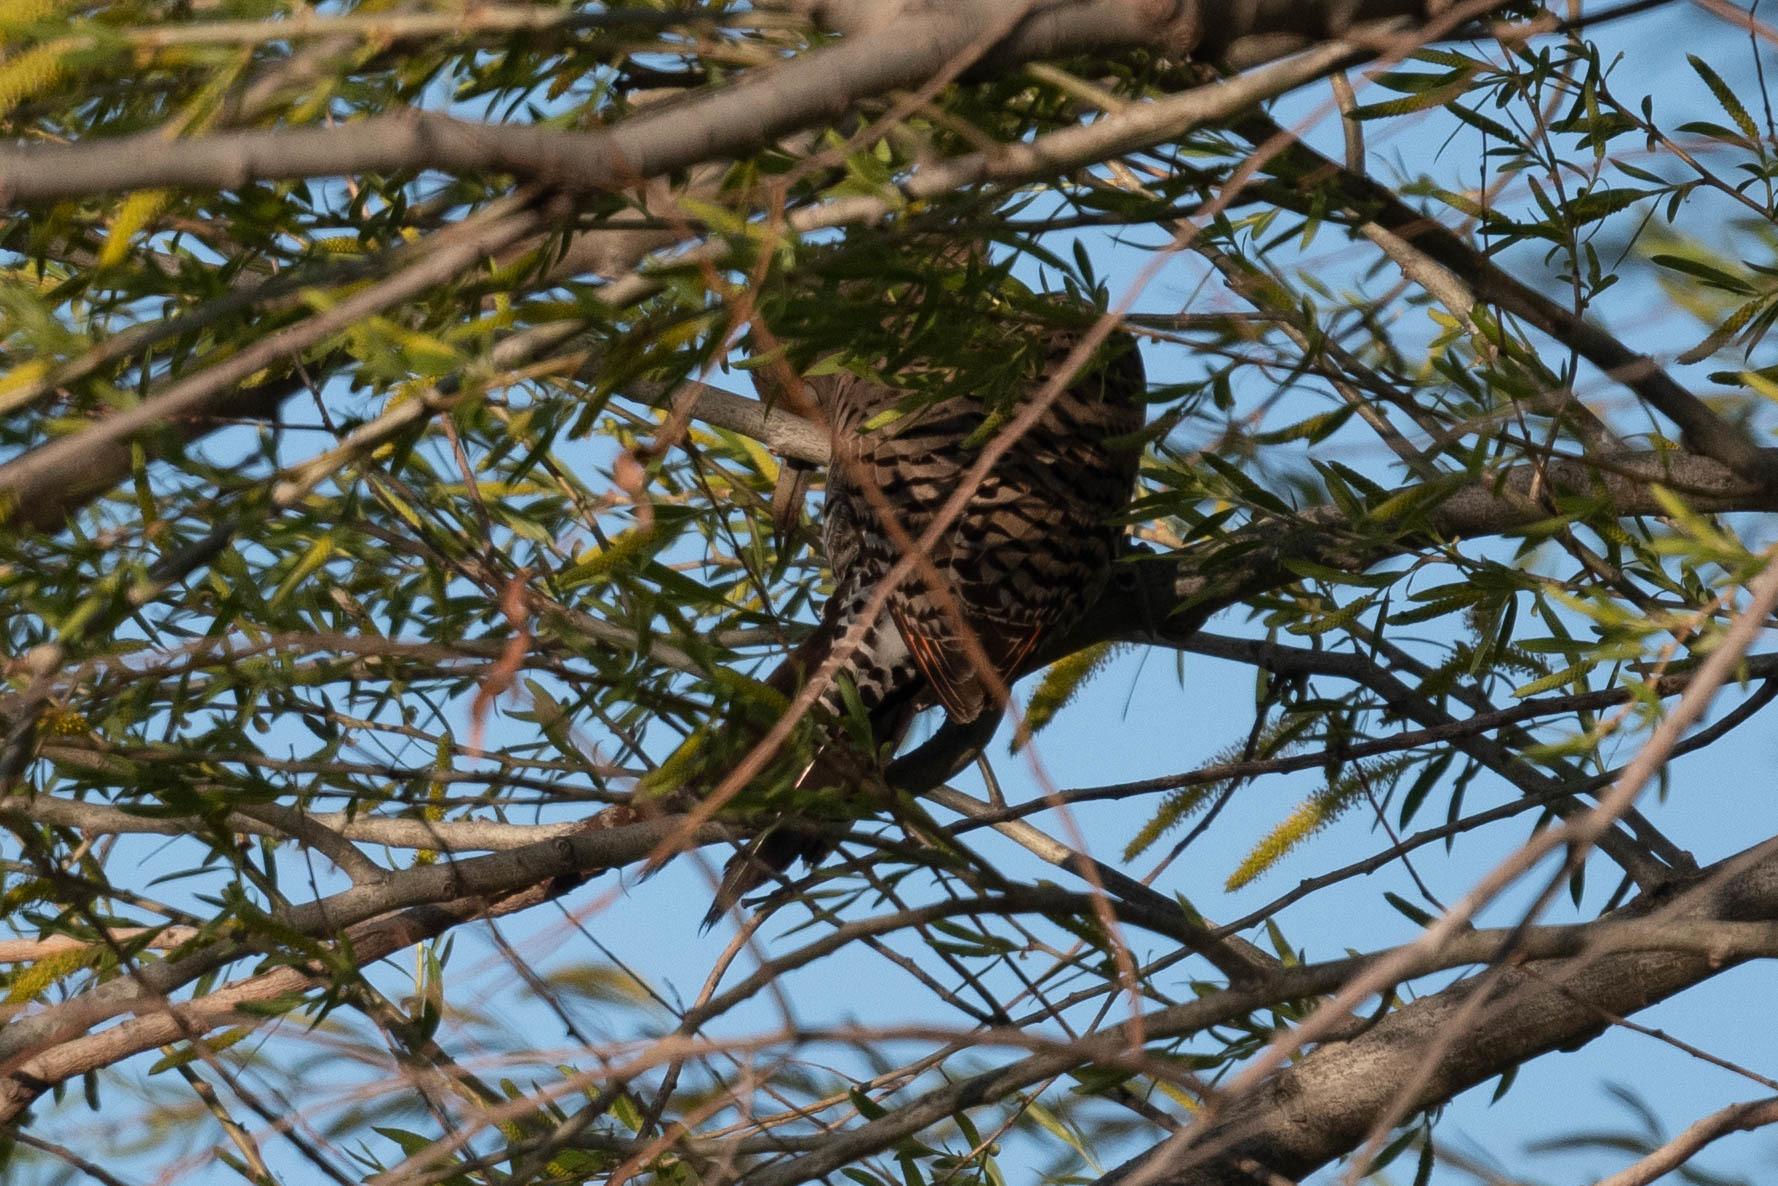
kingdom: Animalia
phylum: Chordata
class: Aves
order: Piciformes
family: Picidae
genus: Colaptes
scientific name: Colaptes auratus
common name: Northern flicker
